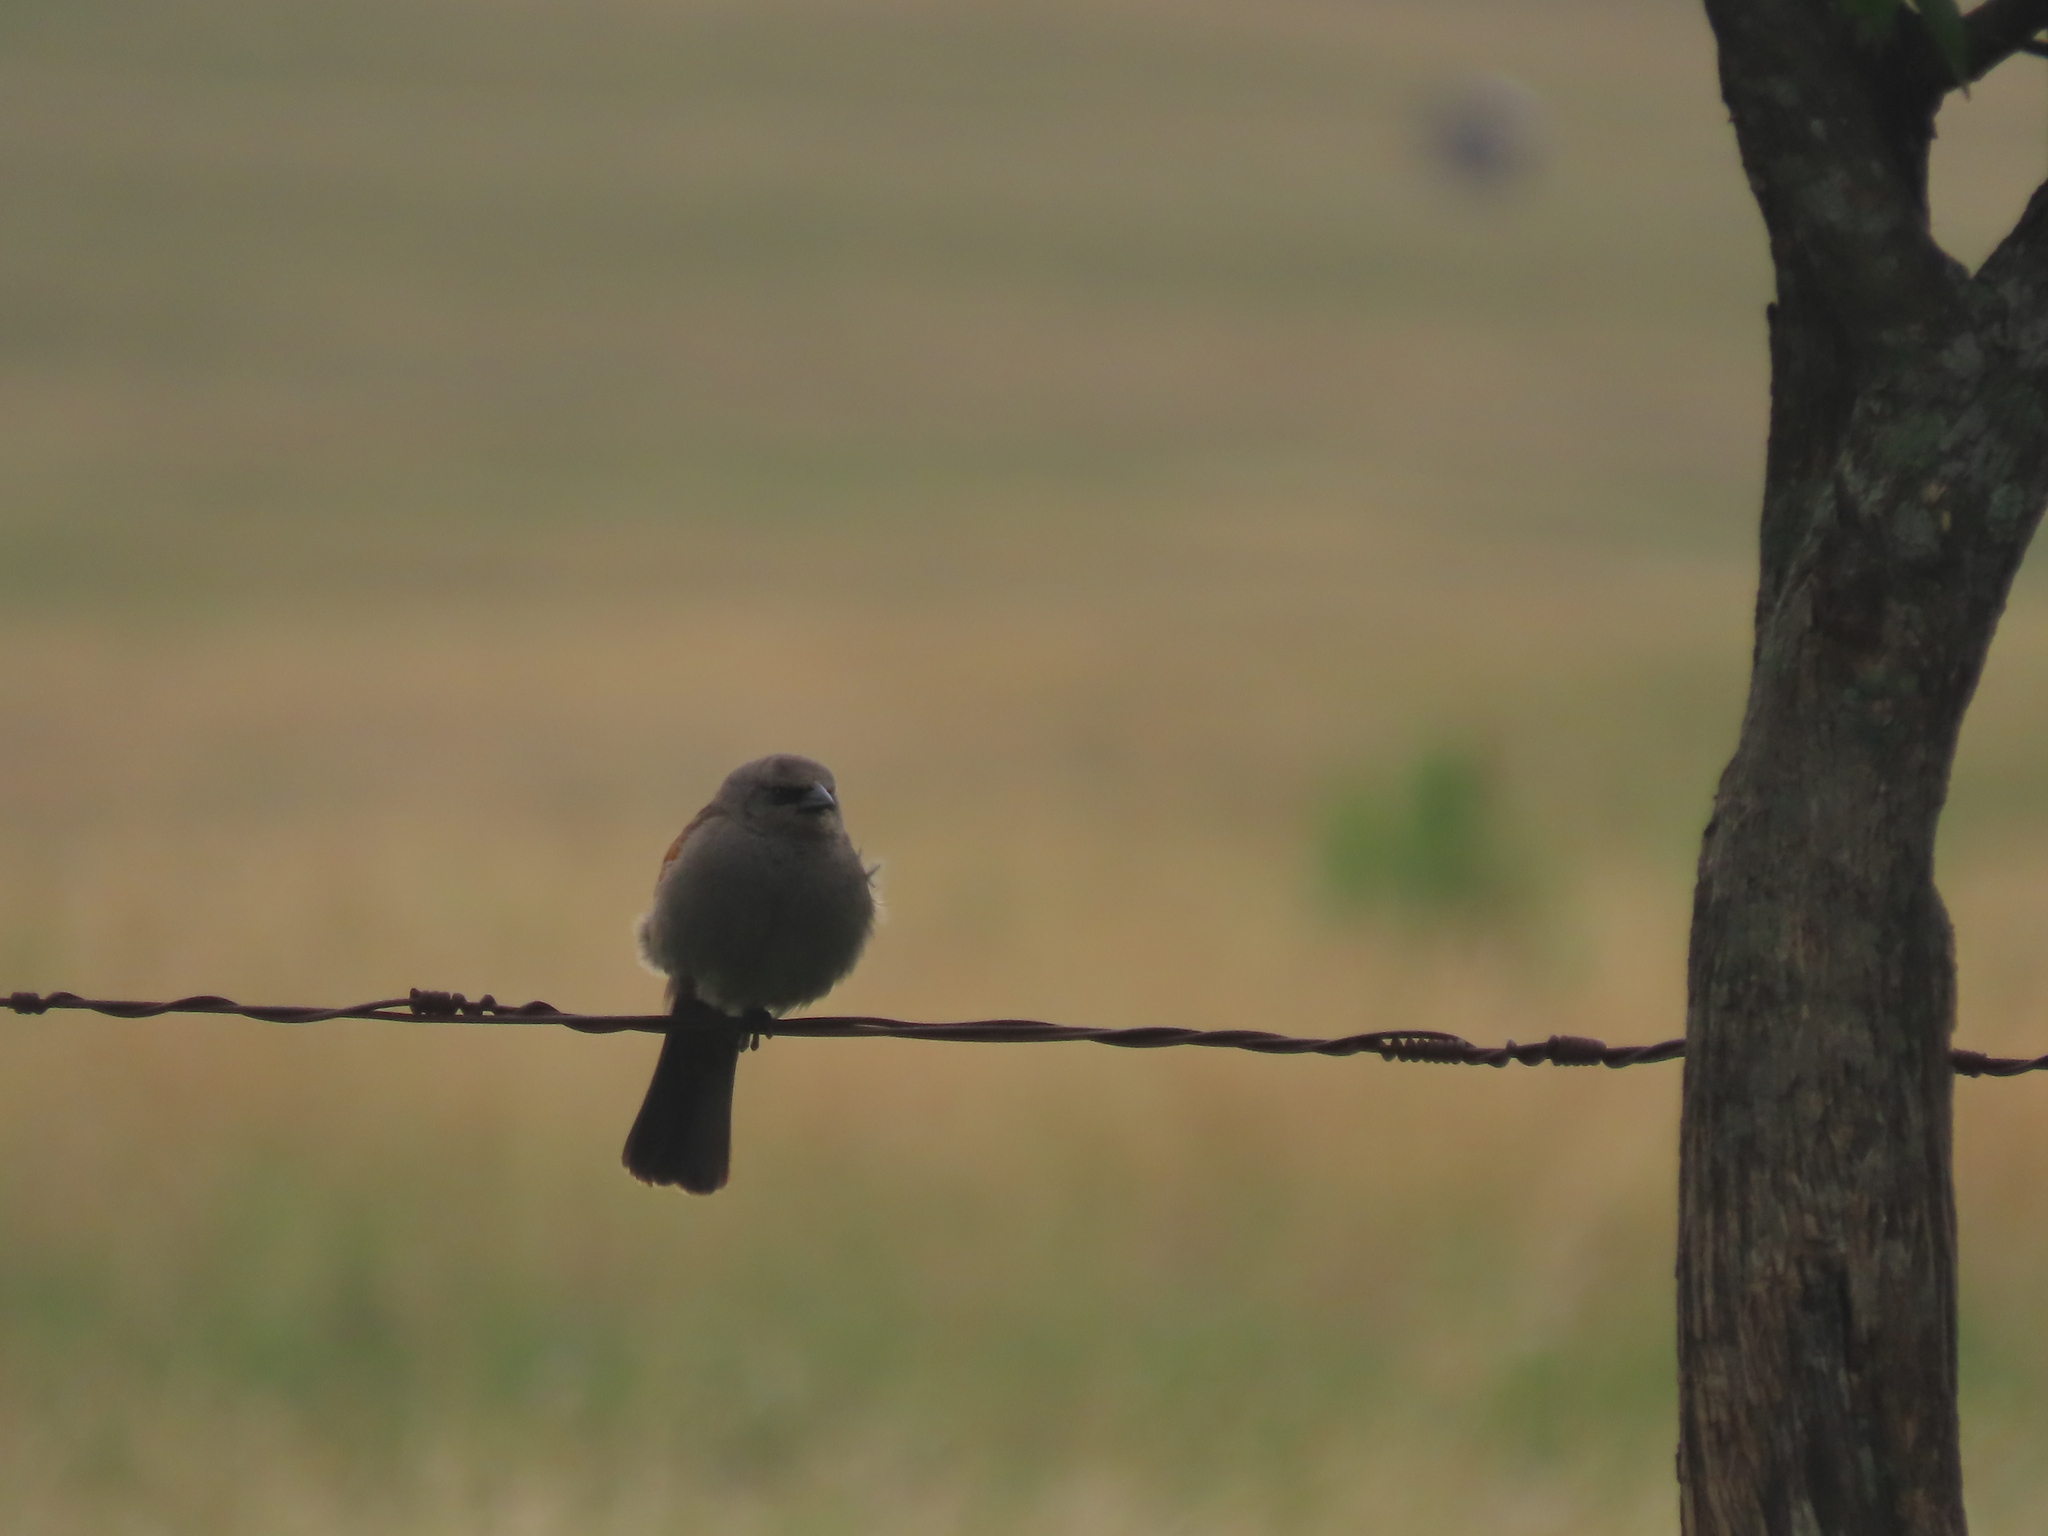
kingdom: Animalia
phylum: Chordata
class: Aves
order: Passeriformes
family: Icteridae
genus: Agelaioides
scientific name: Agelaioides badius
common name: Baywing
